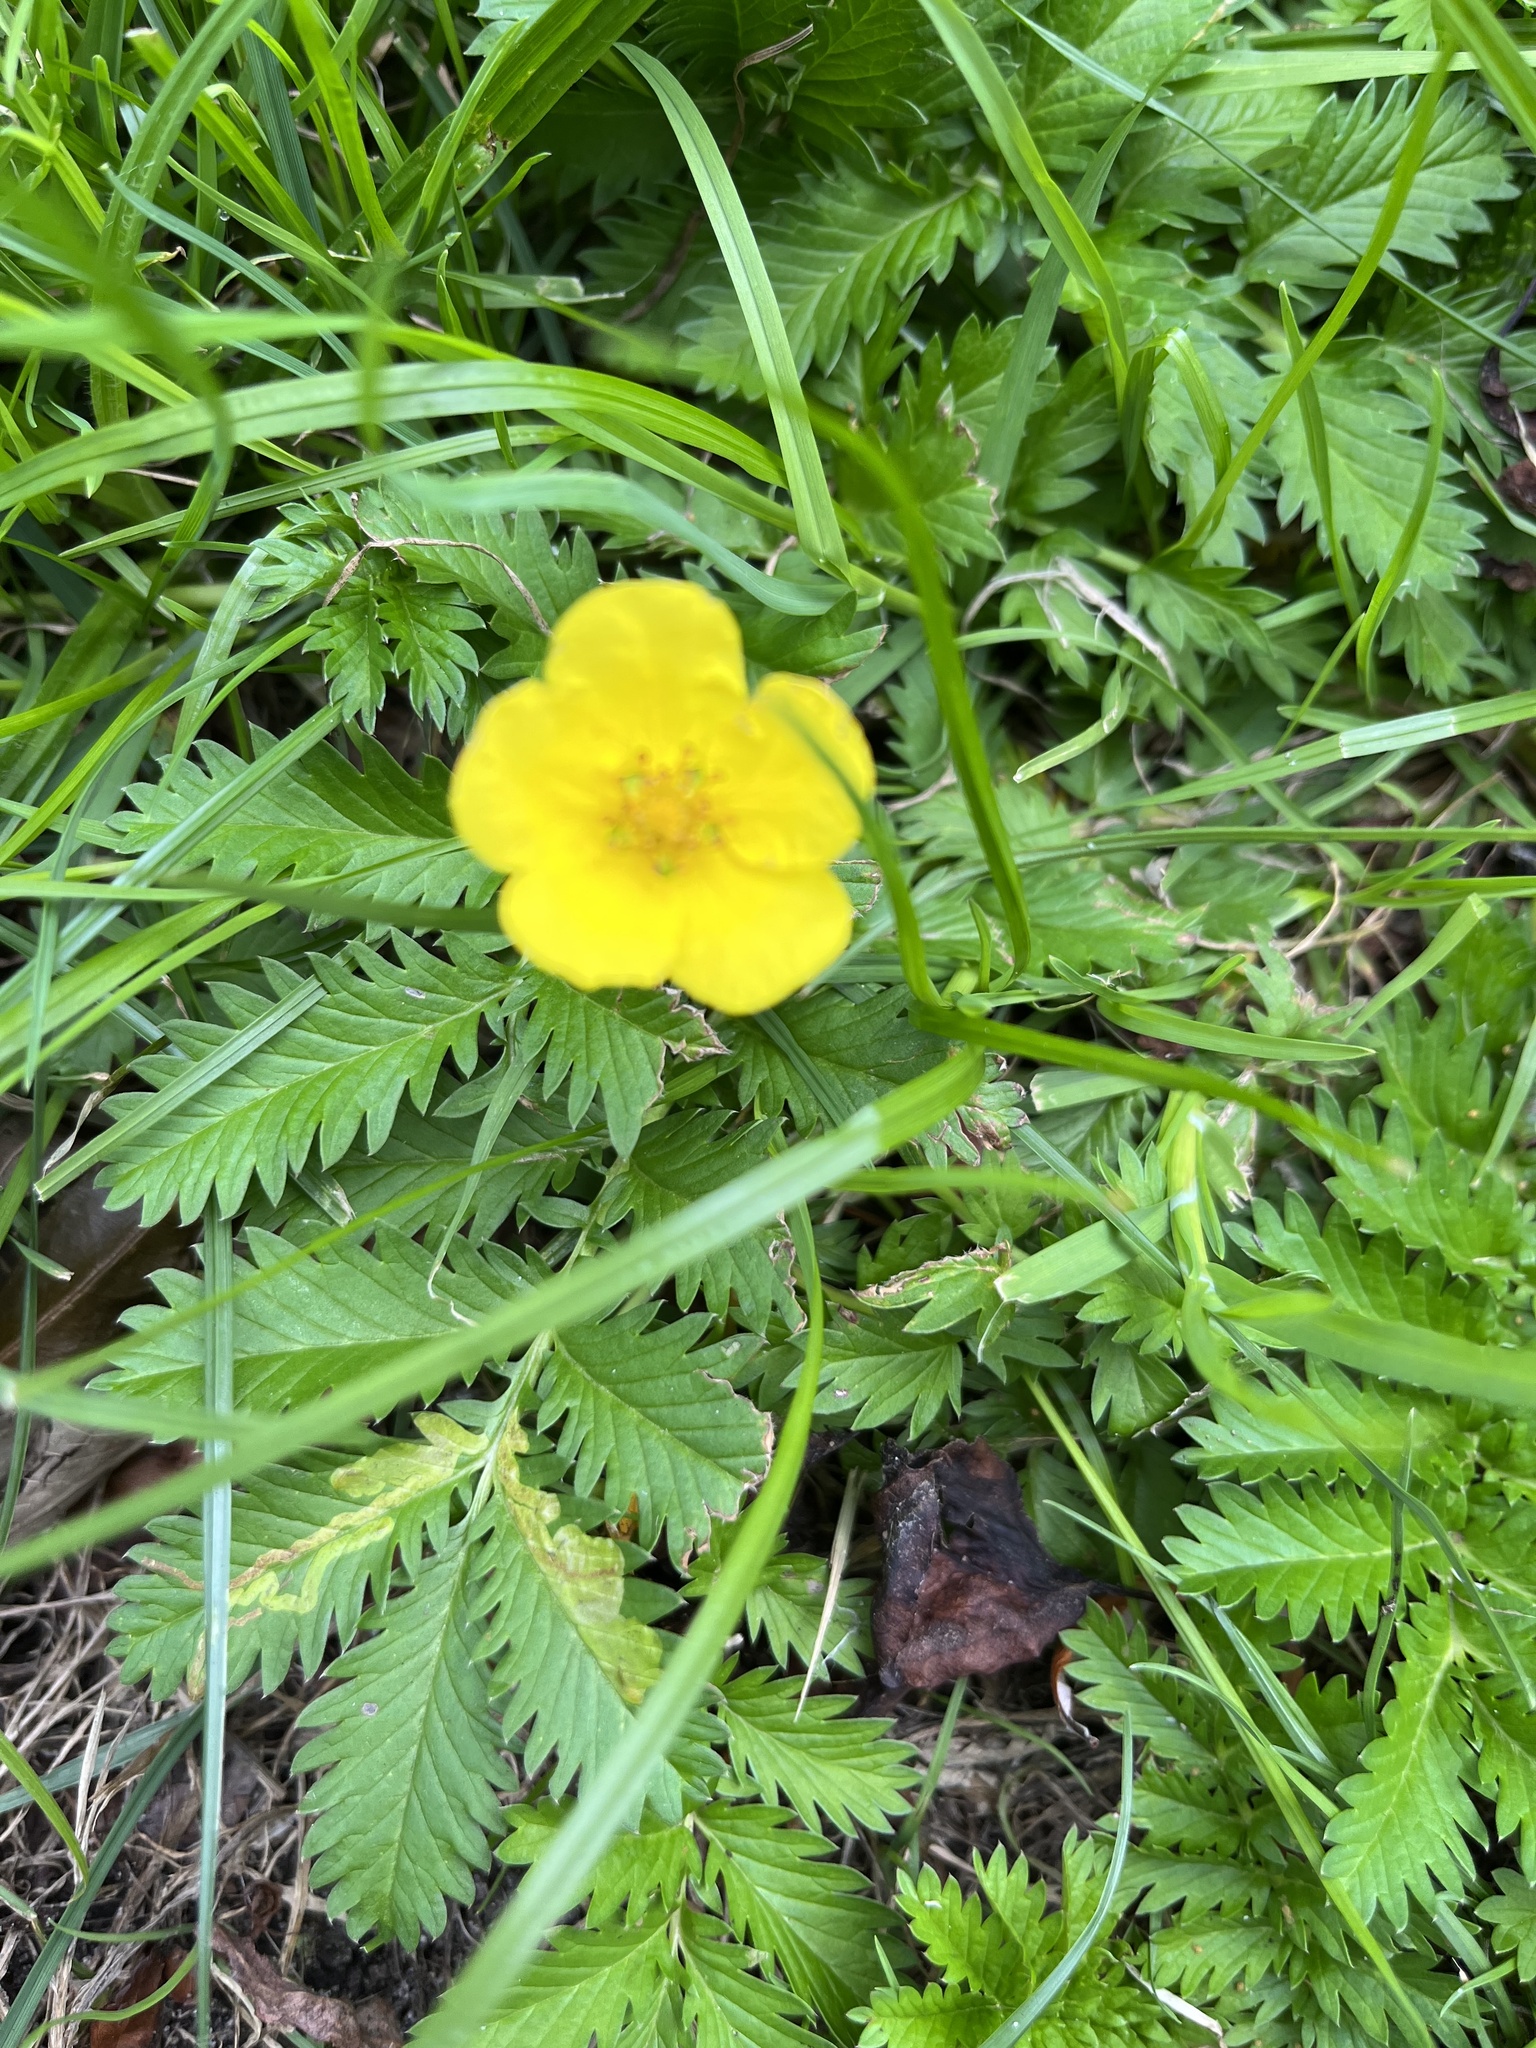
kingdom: Plantae
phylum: Tracheophyta
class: Magnoliopsida
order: Rosales
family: Rosaceae
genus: Argentina
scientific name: Argentina anserina
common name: Common silverweed
